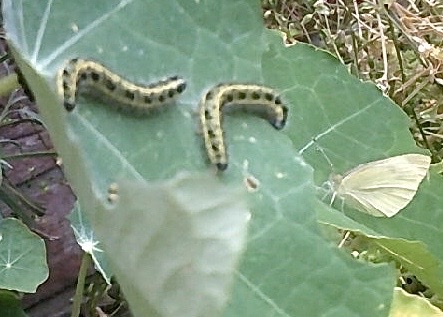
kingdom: Animalia
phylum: Arthropoda
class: Insecta
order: Lepidoptera
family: Pieridae
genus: Pieris
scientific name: Pieris brassicae
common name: Large white
